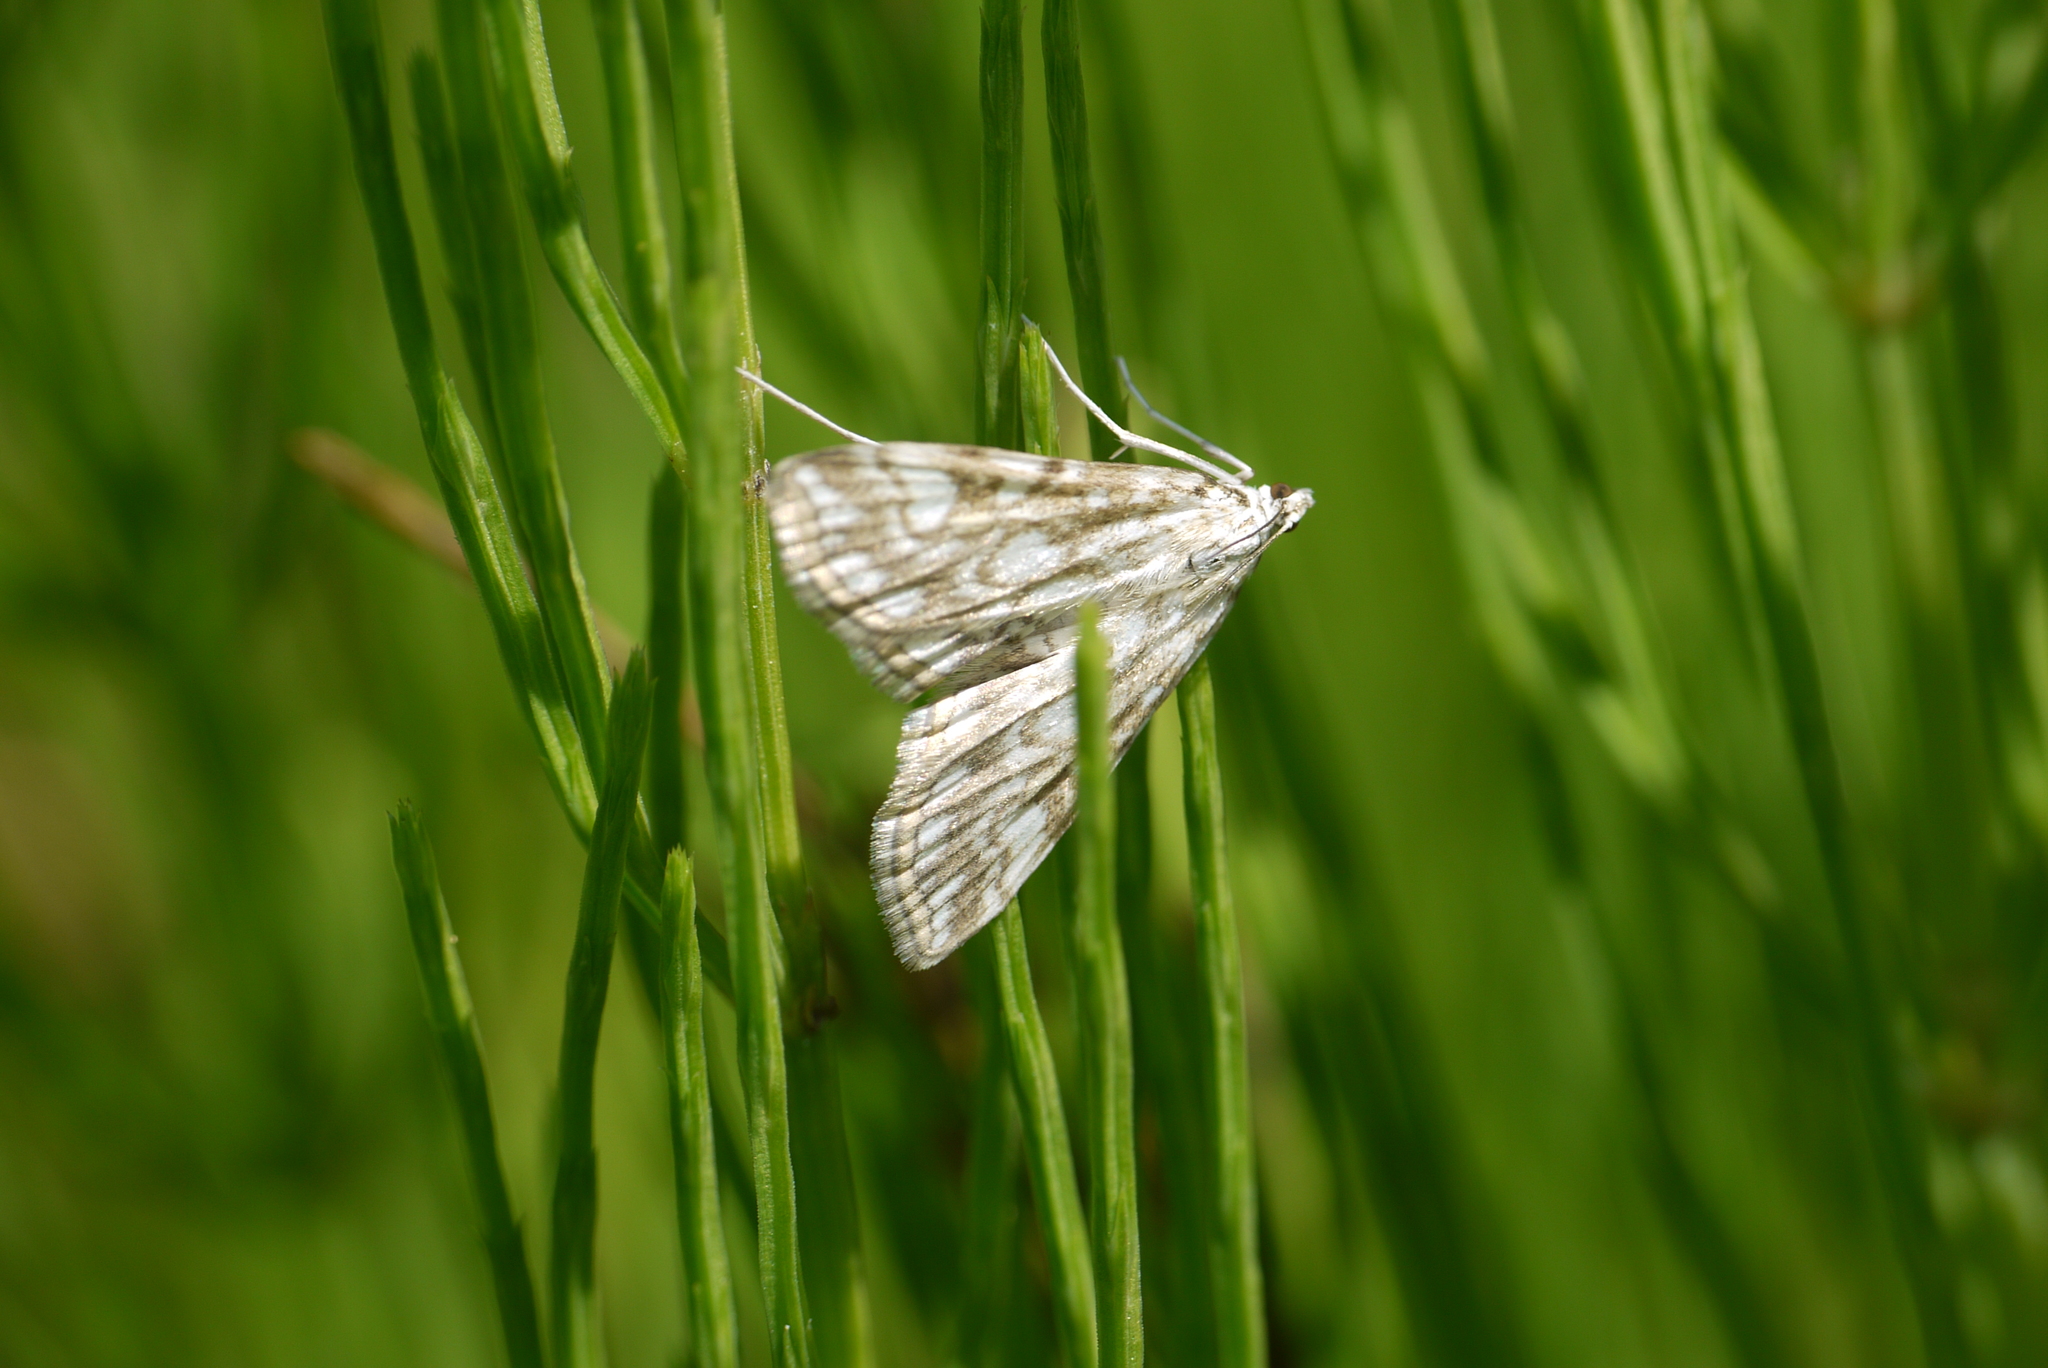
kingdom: Animalia
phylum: Arthropoda
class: Insecta
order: Lepidoptera
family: Crambidae
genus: Elophila
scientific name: Elophila nymphaeata
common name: Brown china-mark
